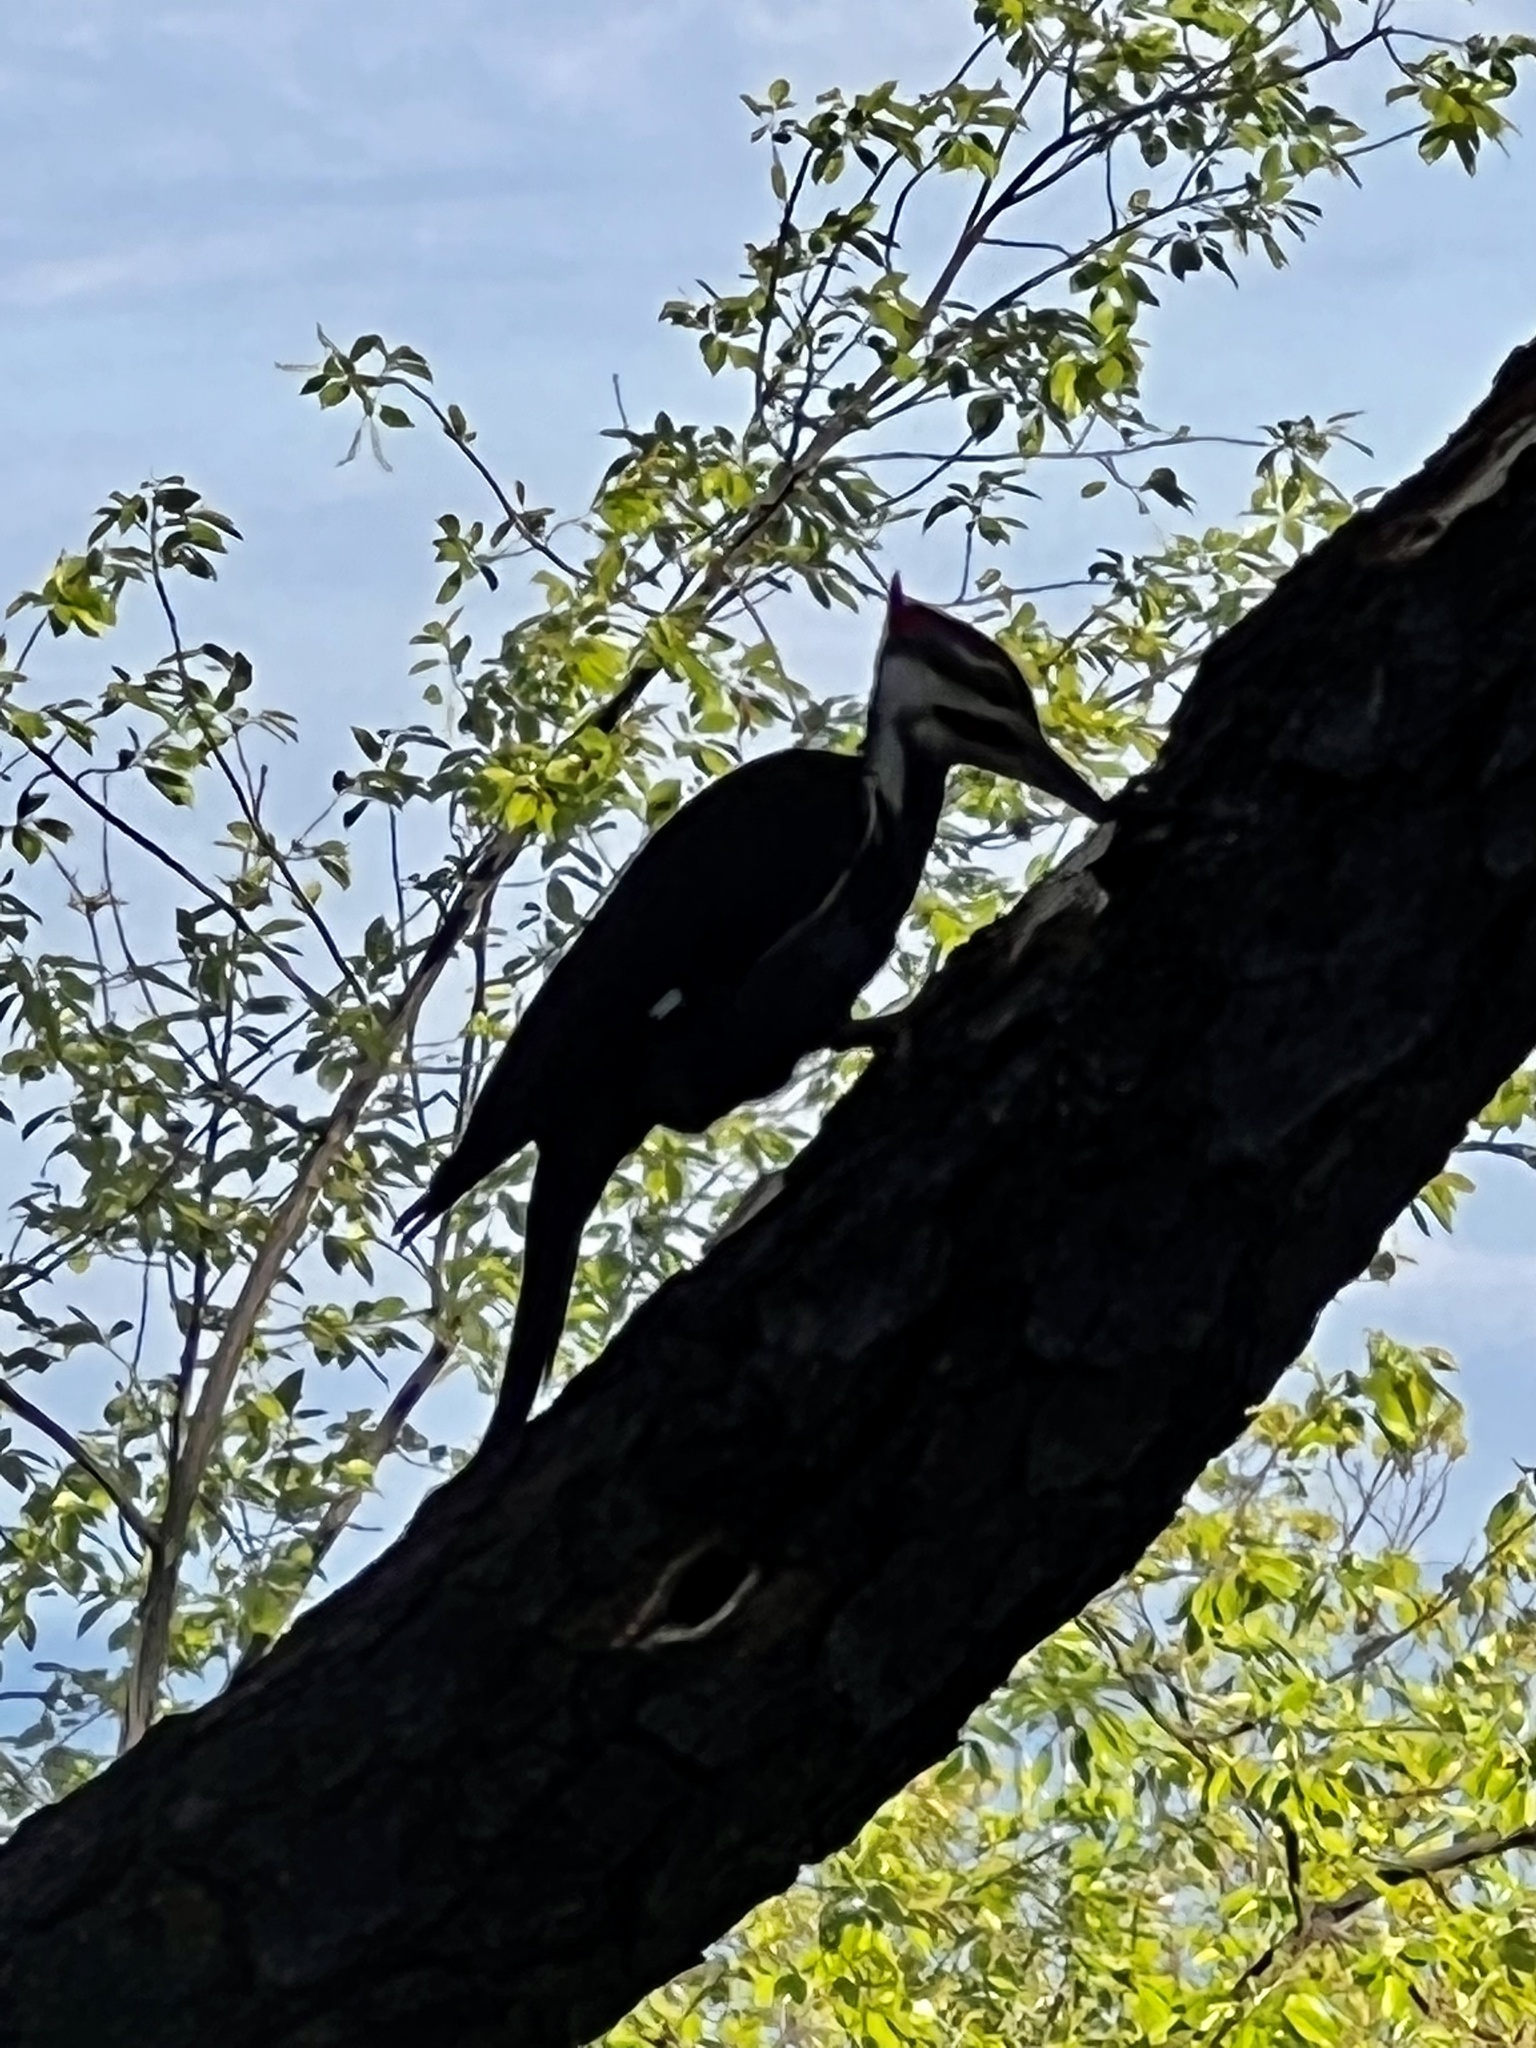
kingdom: Animalia
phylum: Chordata
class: Aves
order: Piciformes
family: Picidae
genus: Dryocopus
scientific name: Dryocopus pileatus
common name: Pileated woodpecker
